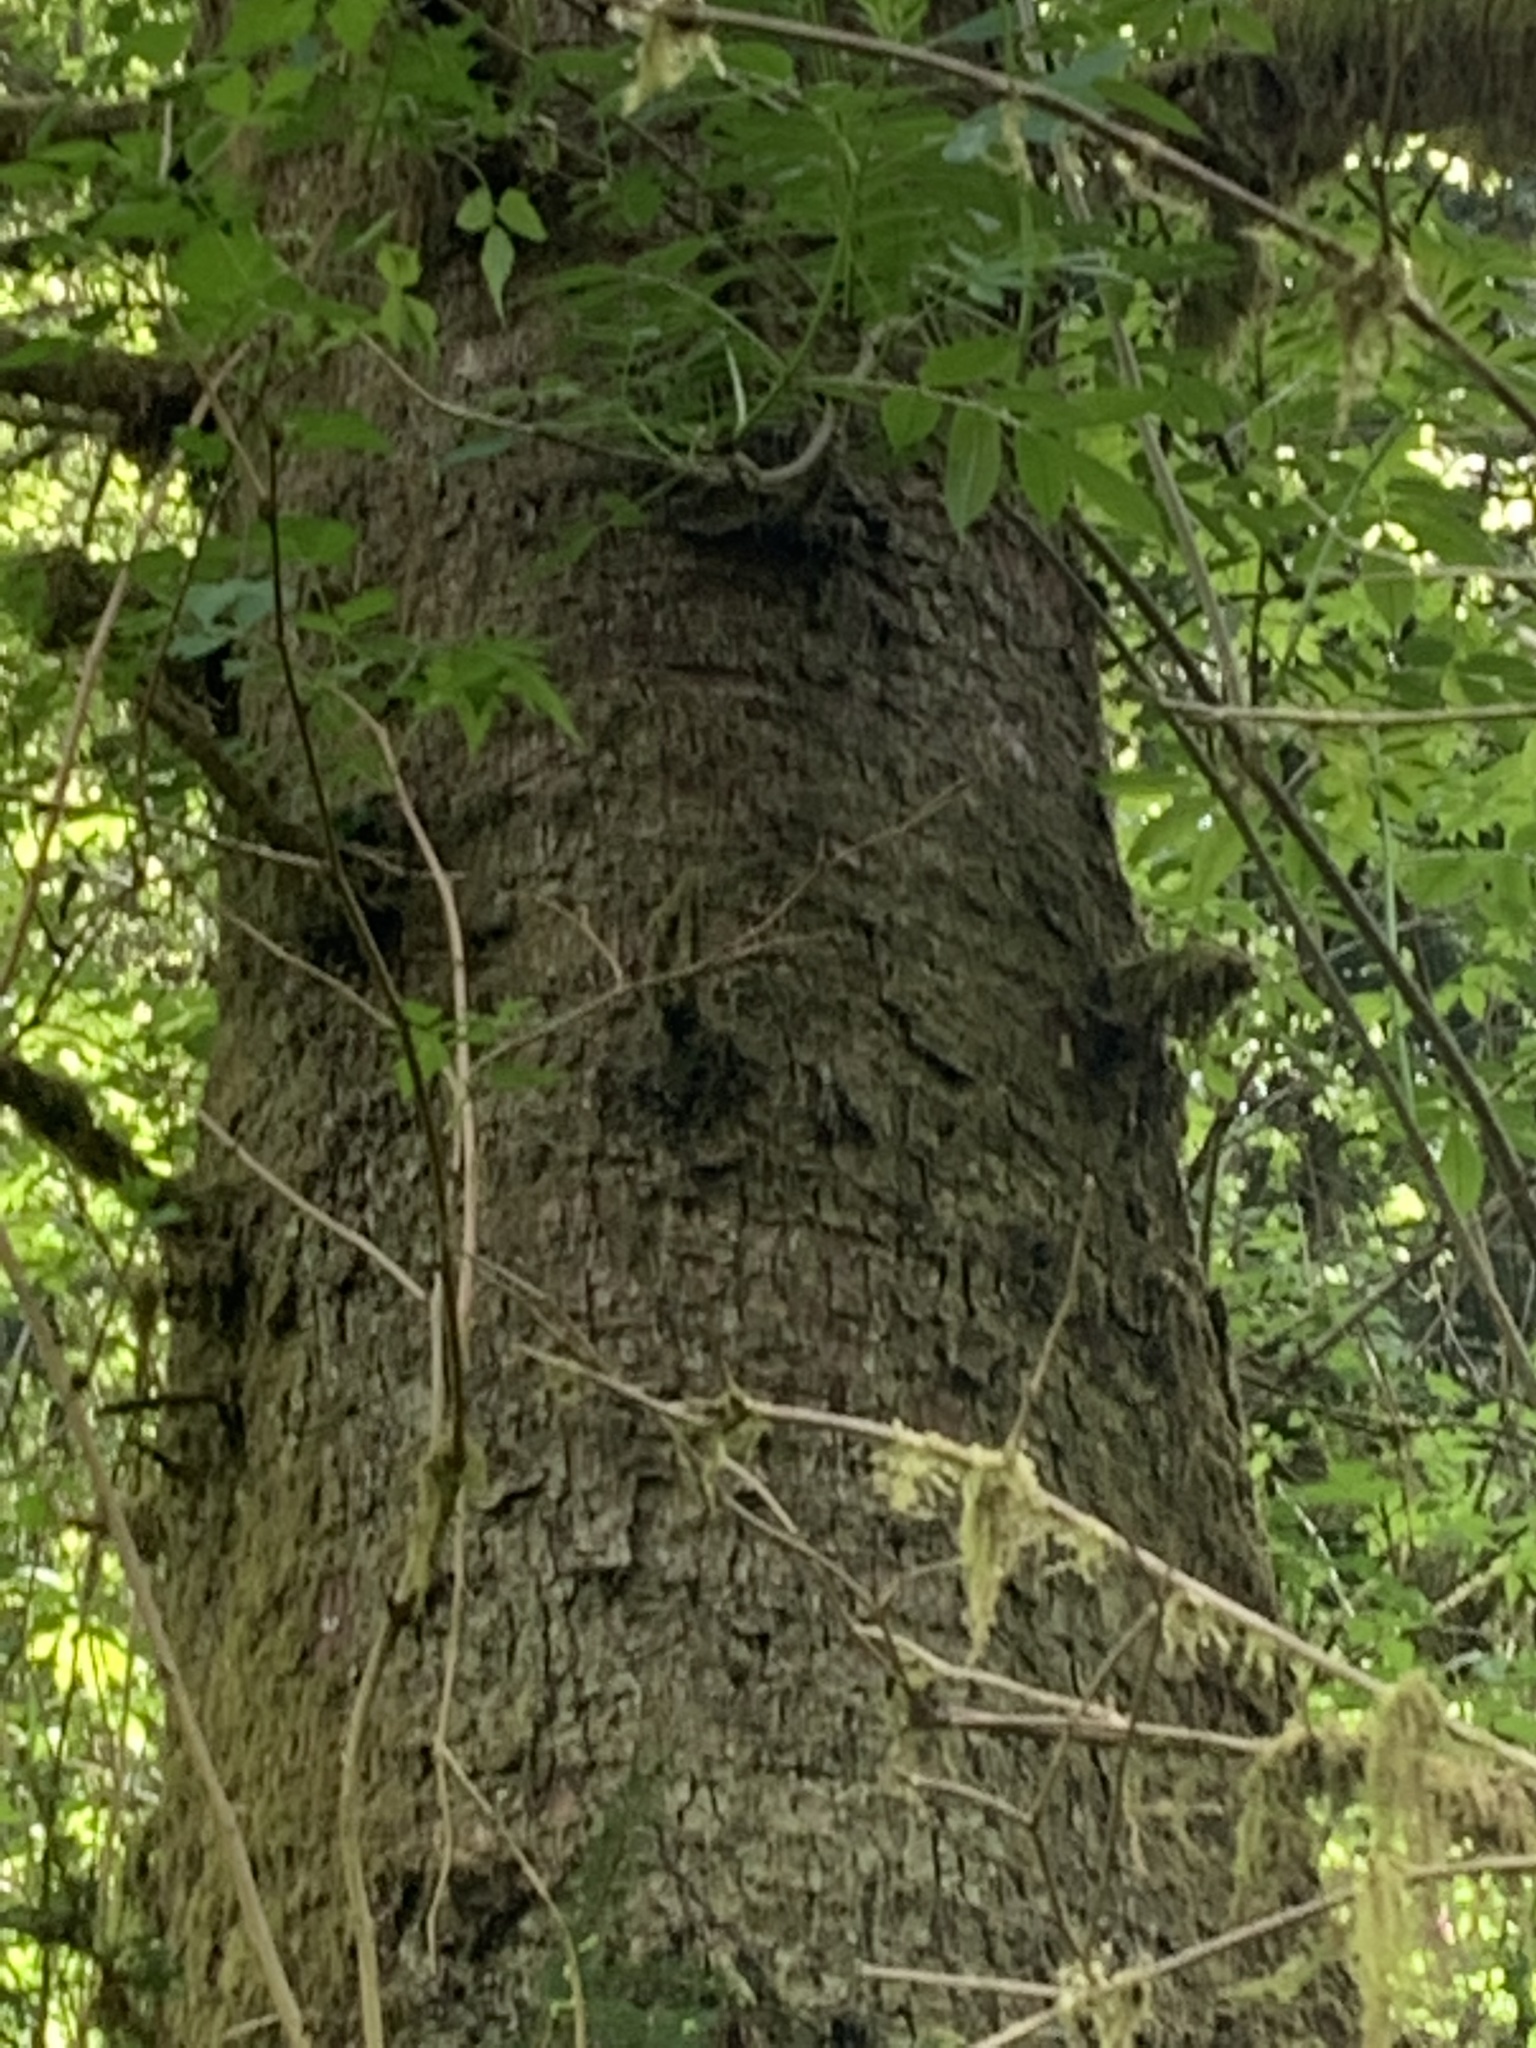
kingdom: Plantae
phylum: Tracheophyta
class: Pinopsida
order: Pinales
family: Pinaceae
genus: Picea
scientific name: Picea sitchensis
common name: Sitka spruce
